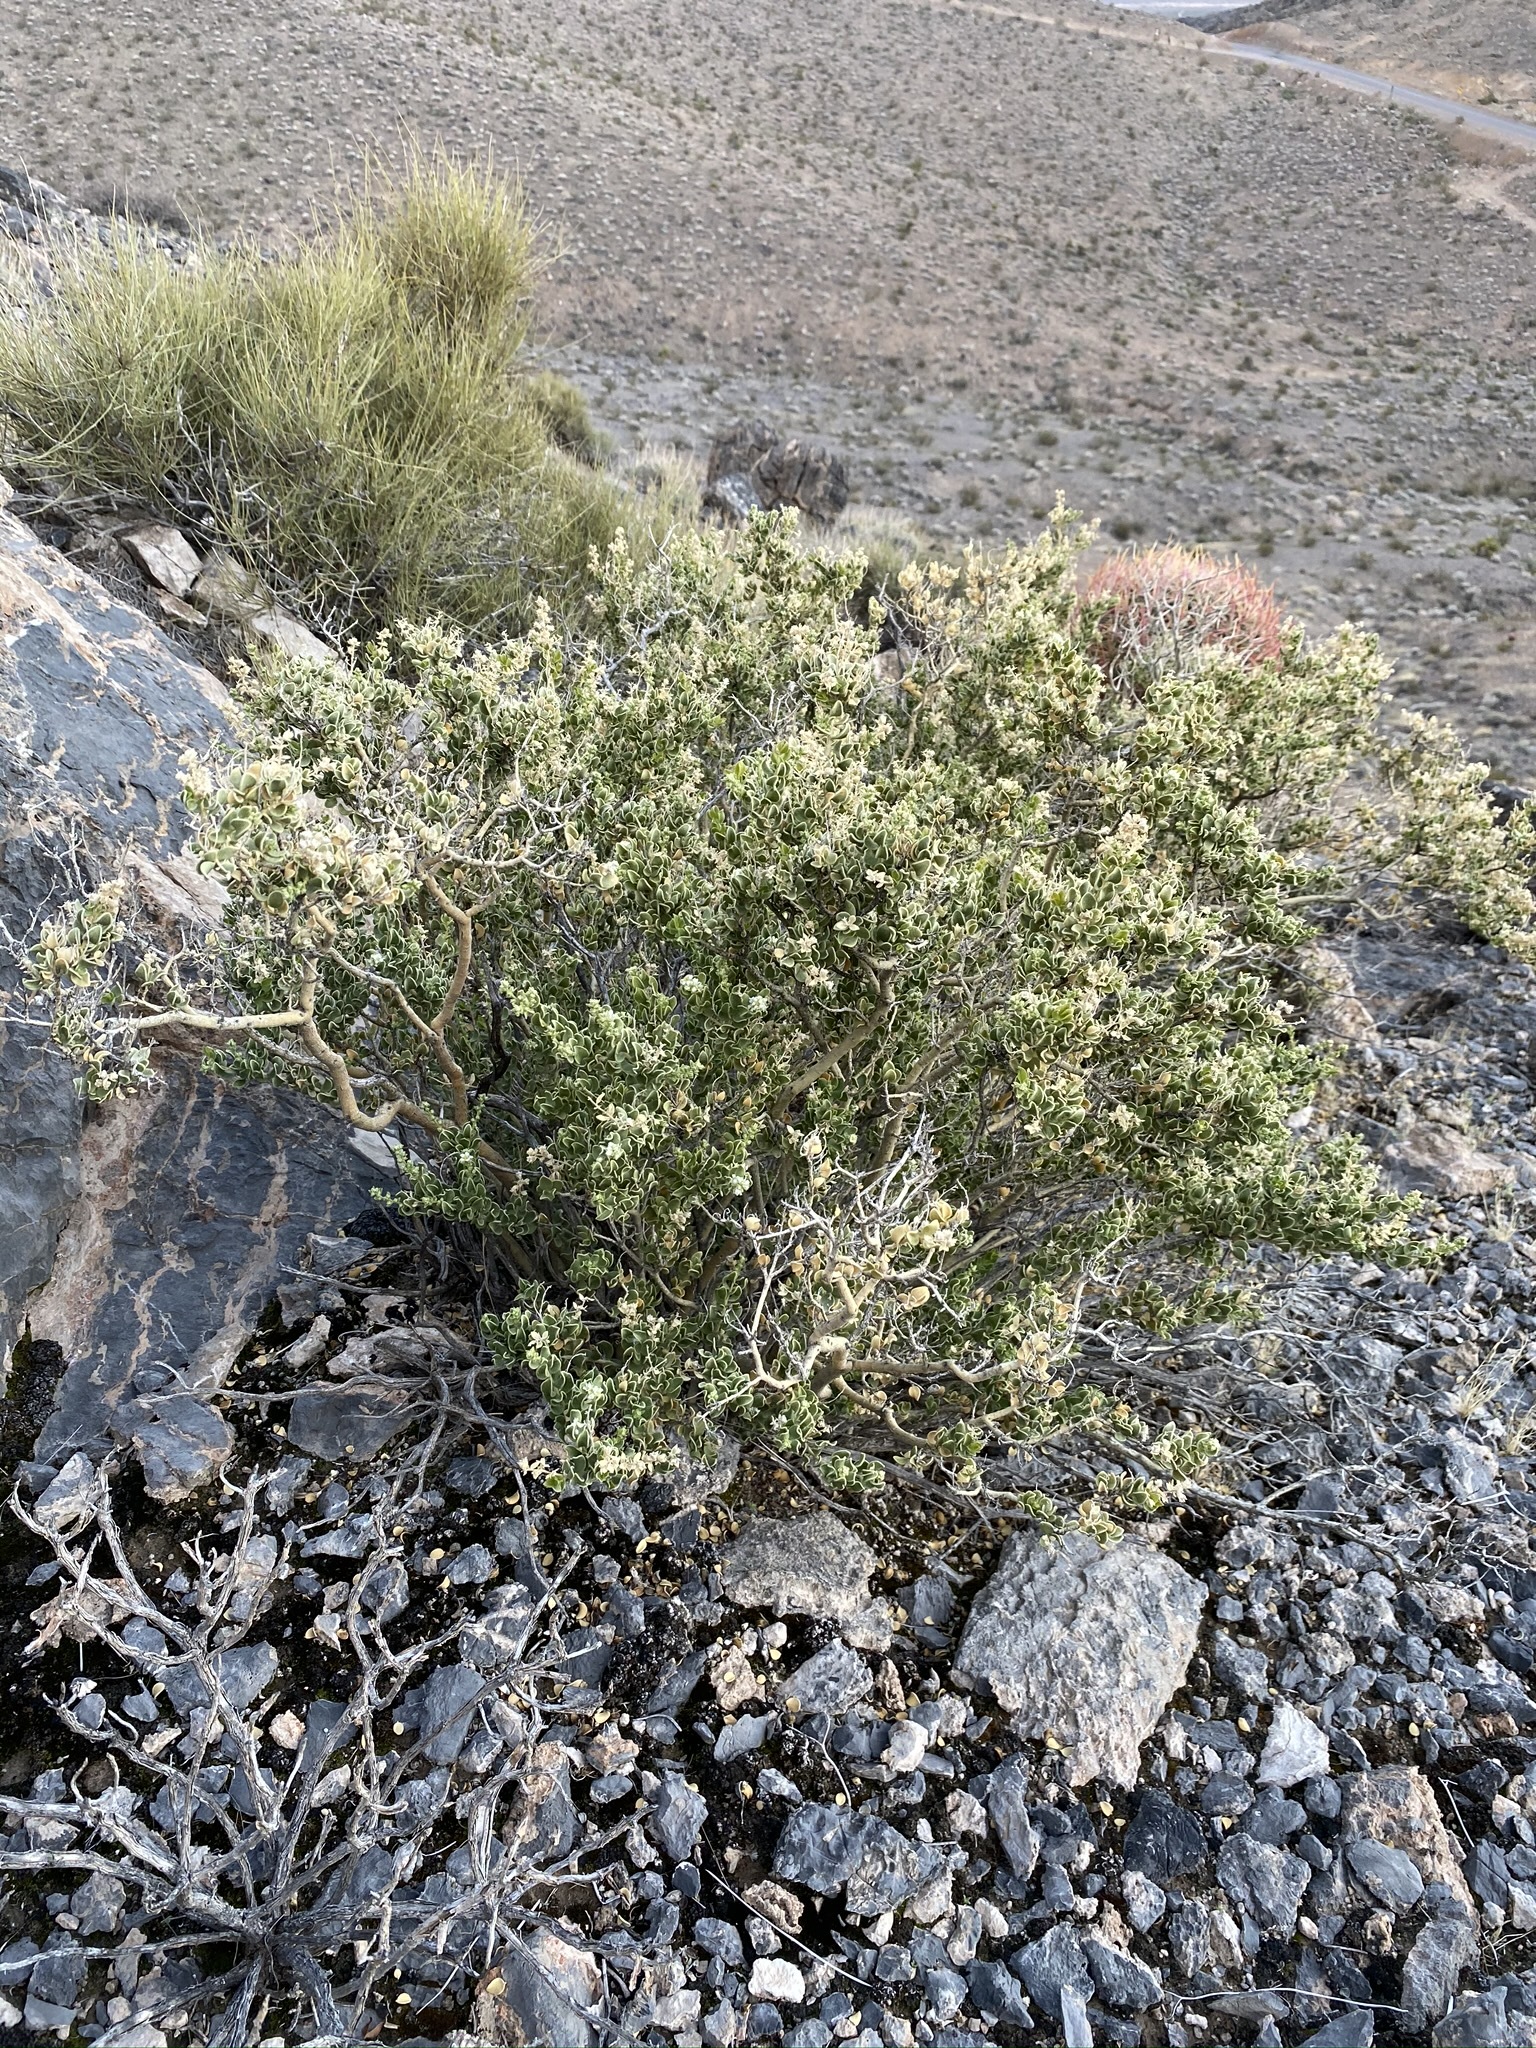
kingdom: Plantae
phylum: Tracheophyta
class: Magnoliopsida
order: Celastrales
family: Celastraceae
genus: Mortonia
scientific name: Mortonia utahensis
